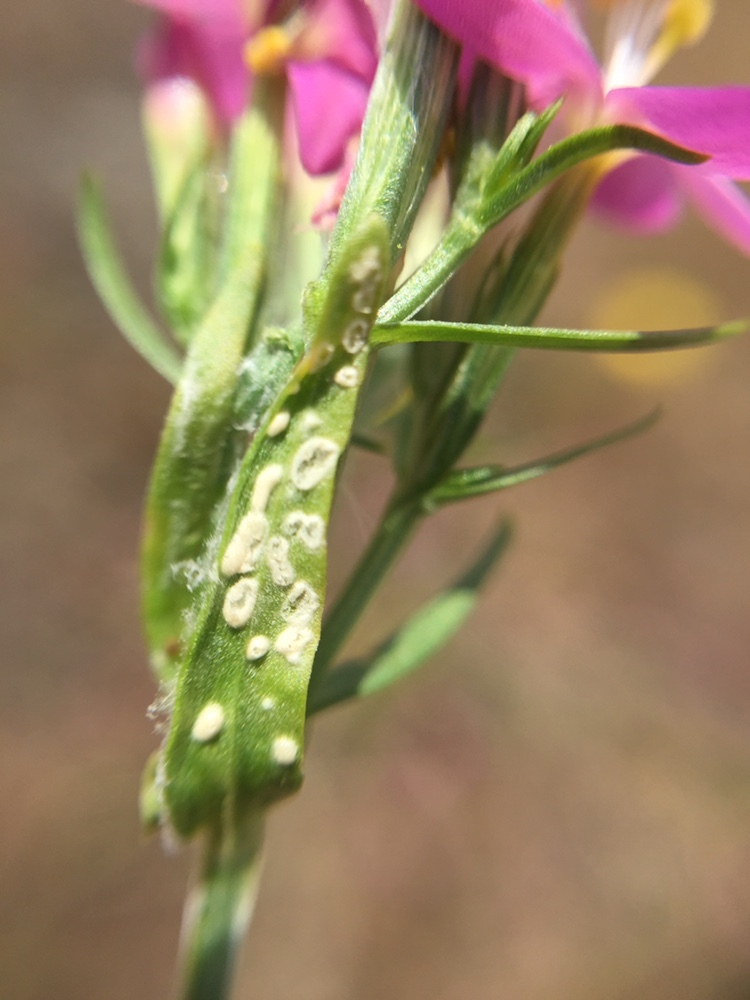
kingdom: Chromista
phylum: Oomycota
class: Peronosporea
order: Albuginales
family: Albuginaceae
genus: Pustula
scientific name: Pustula centaurii
